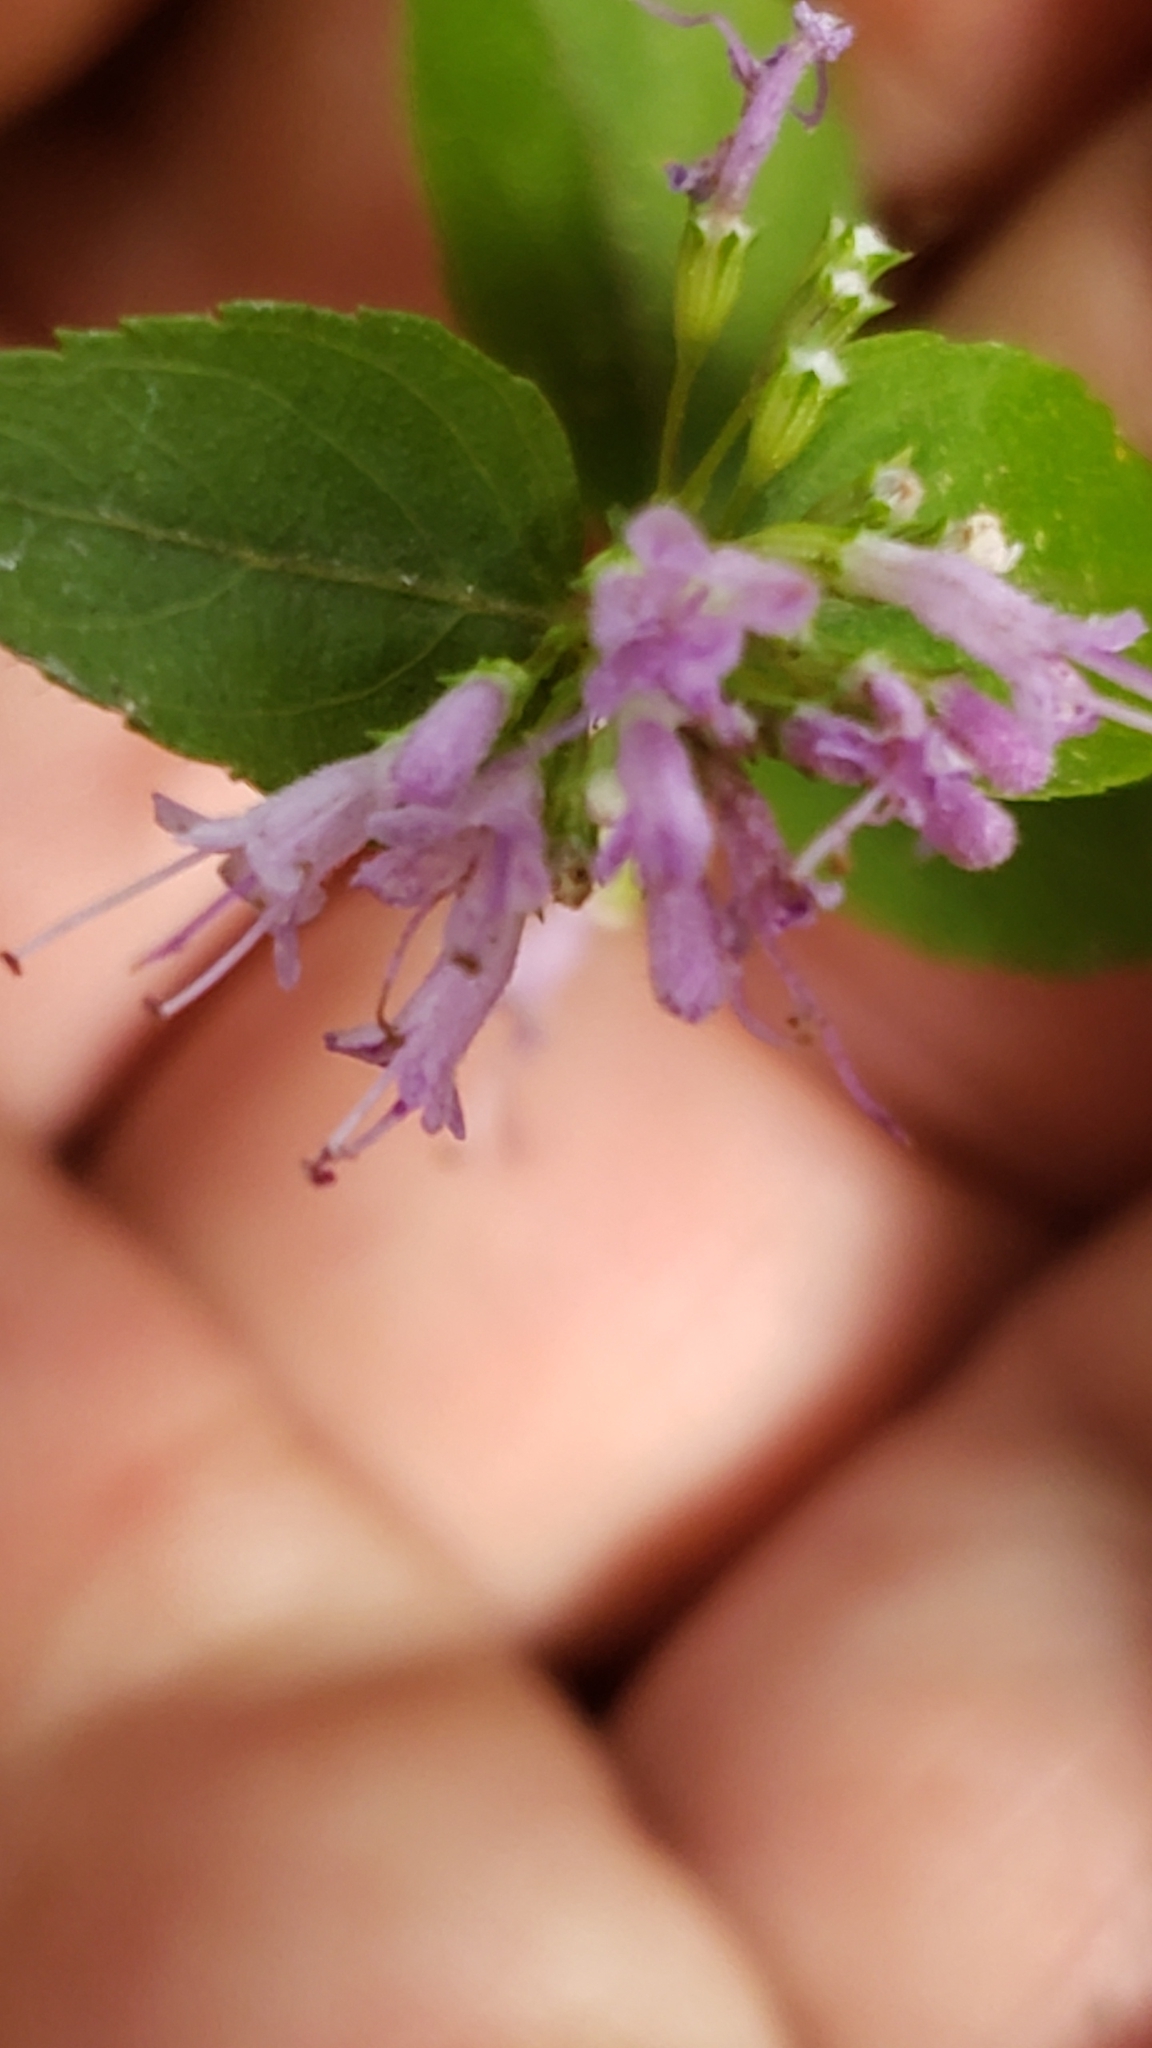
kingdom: Plantae
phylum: Tracheophyta
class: Magnoliopsida
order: Lamiales
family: Lamiaceae
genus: Cunila
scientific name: Cunila origanoides
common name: American dittany
